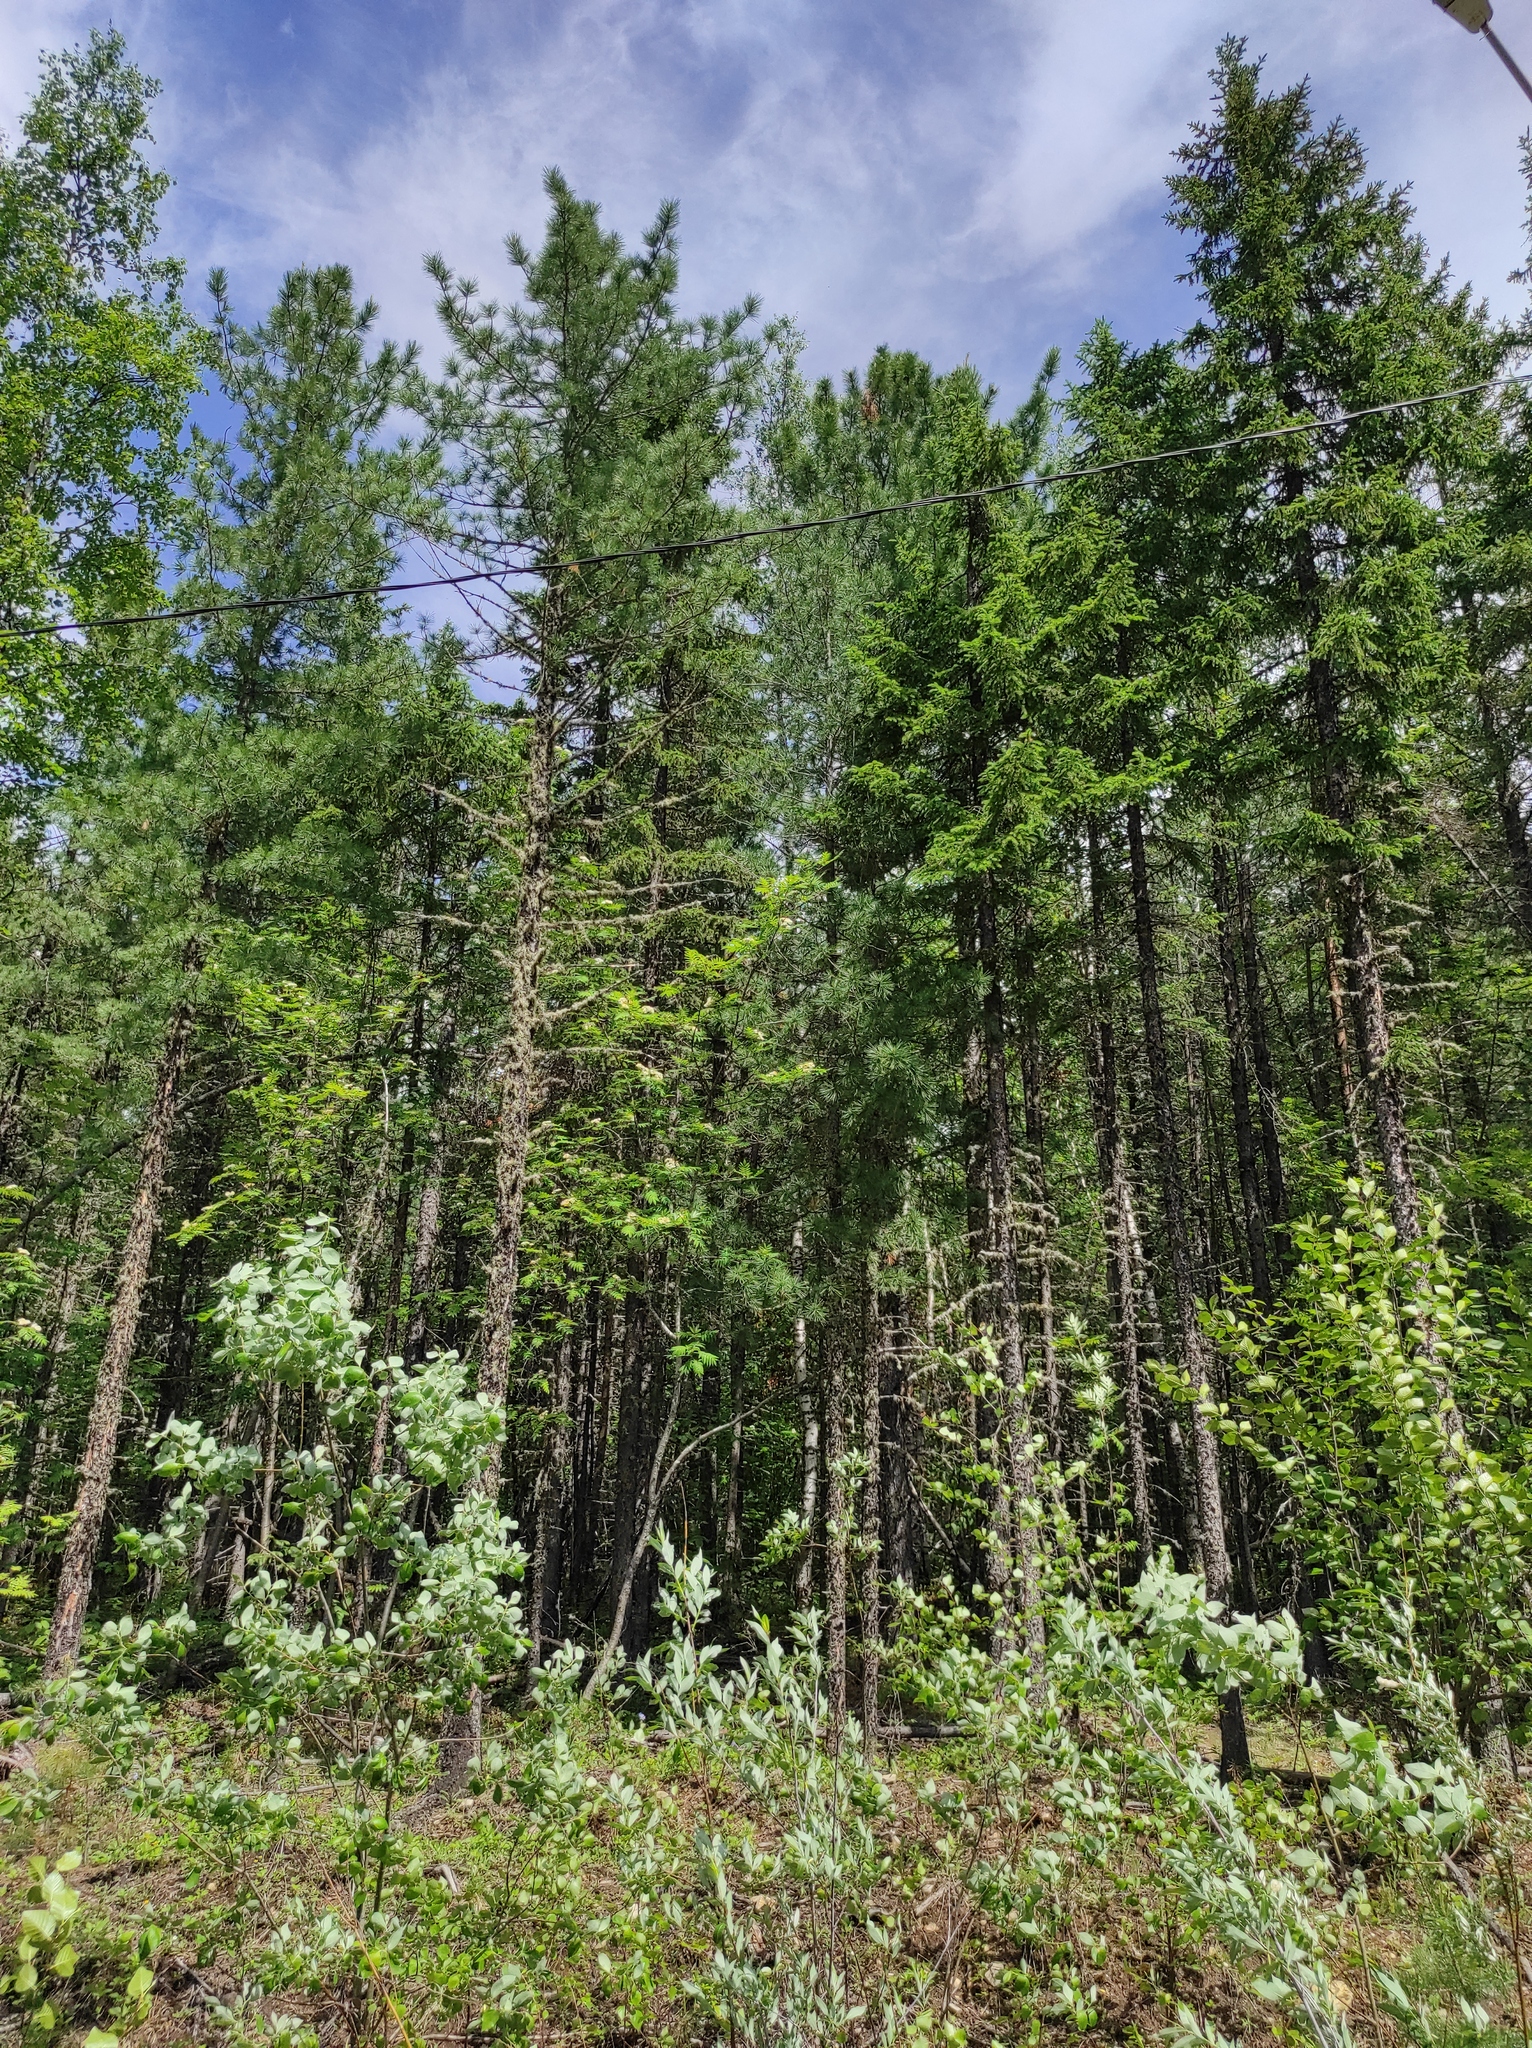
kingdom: Plantae
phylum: Tracheophyta
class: Pinopsida
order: Pinales
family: Pinaceae
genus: Picea
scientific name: Picea obovata
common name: Siberian spruce
